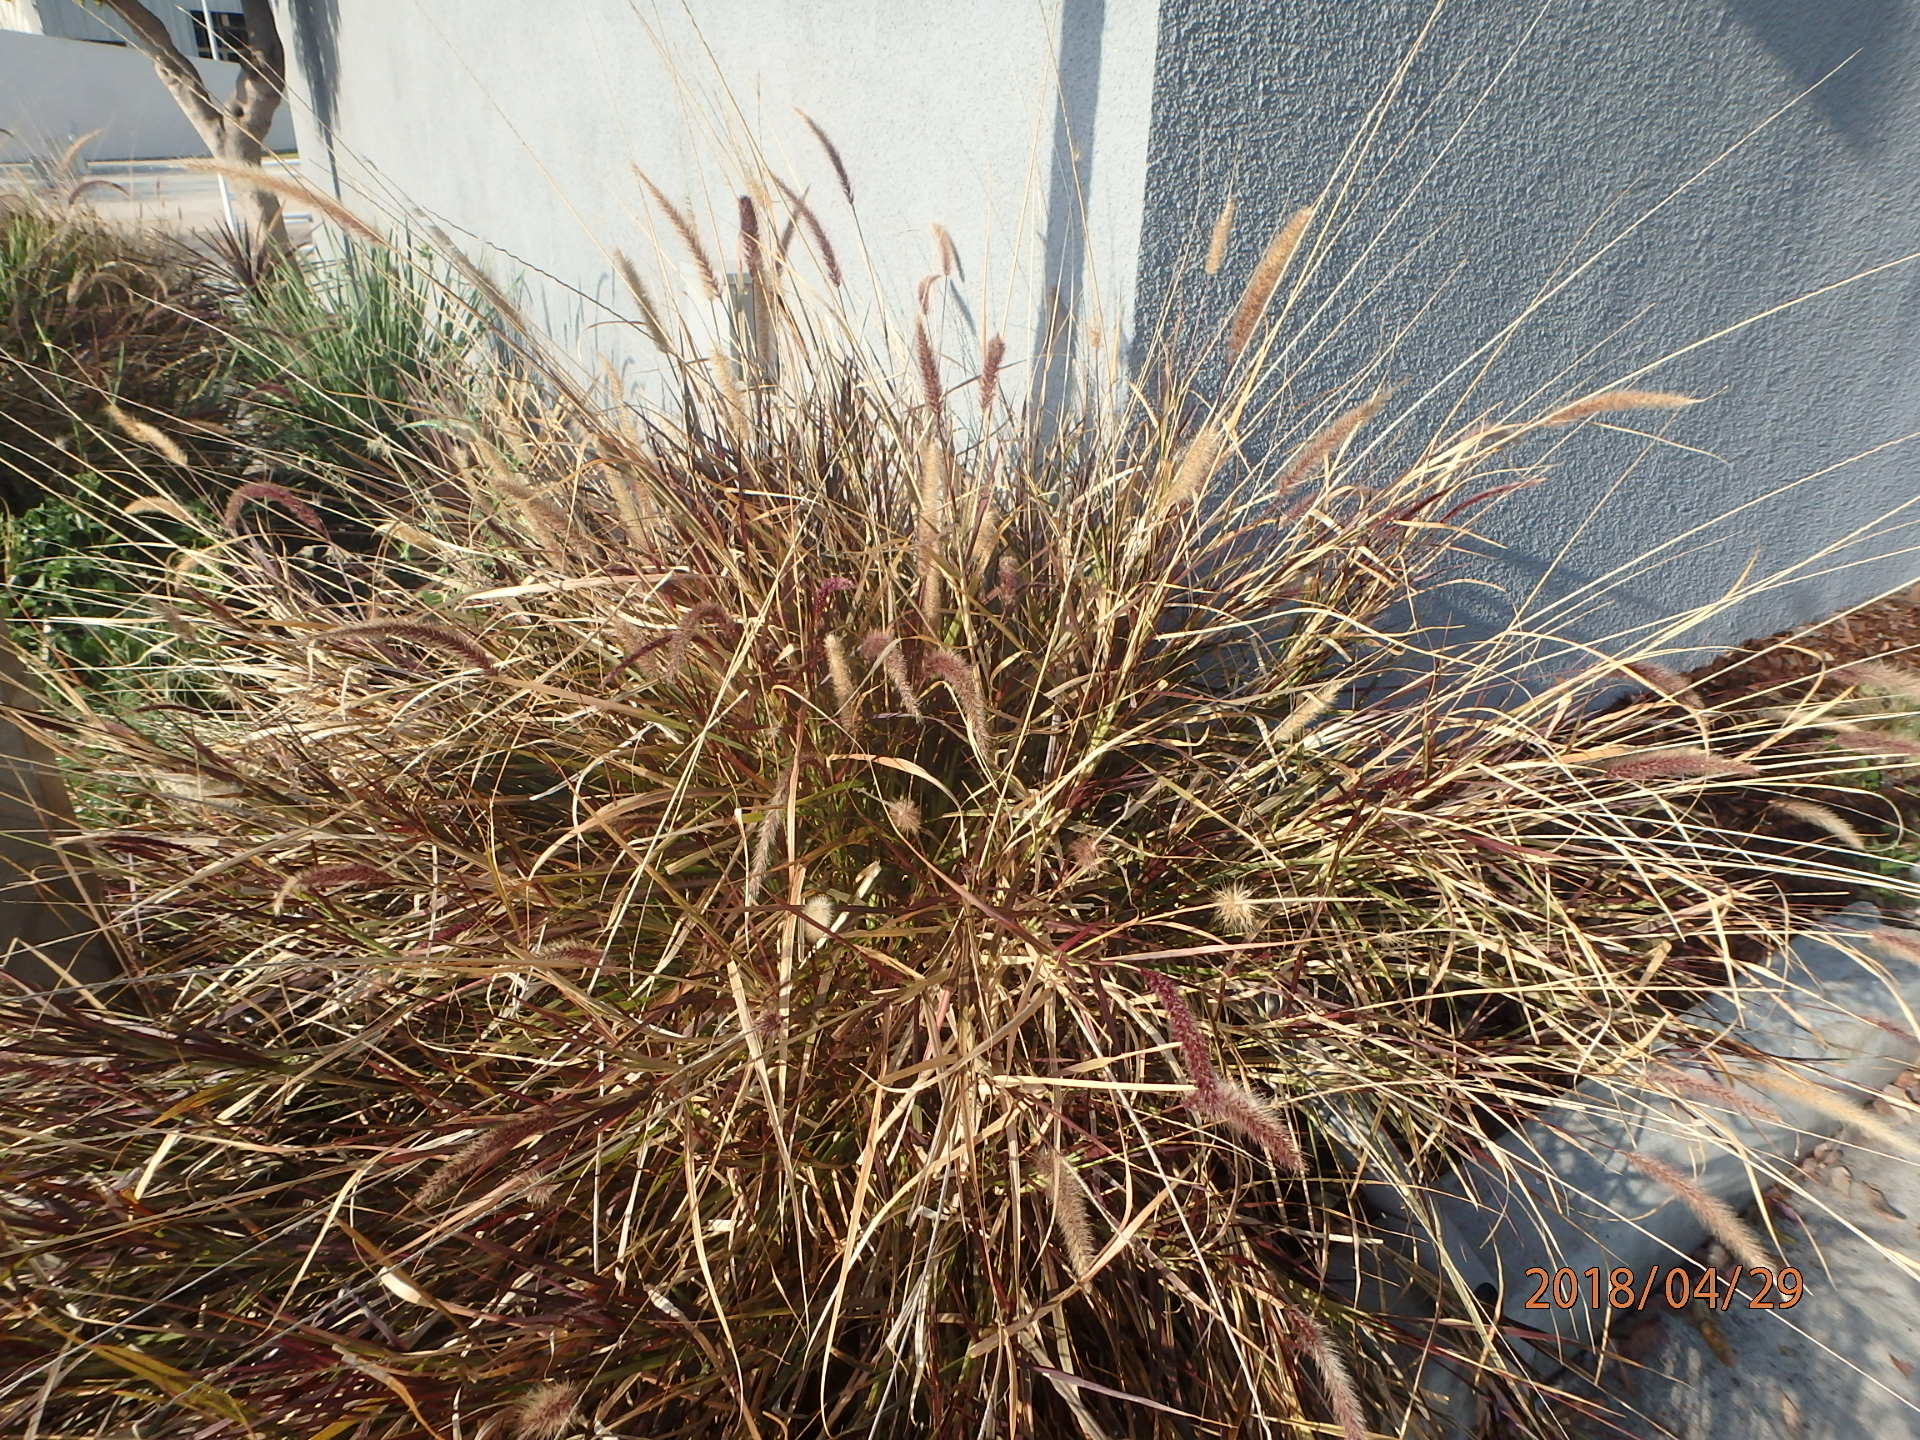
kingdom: Plantae
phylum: Tracheophyta
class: Liliopsida
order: Poales
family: Poaceae
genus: Cenchrus
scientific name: Cenchrus setaceus
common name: Crimson fountaingrass
